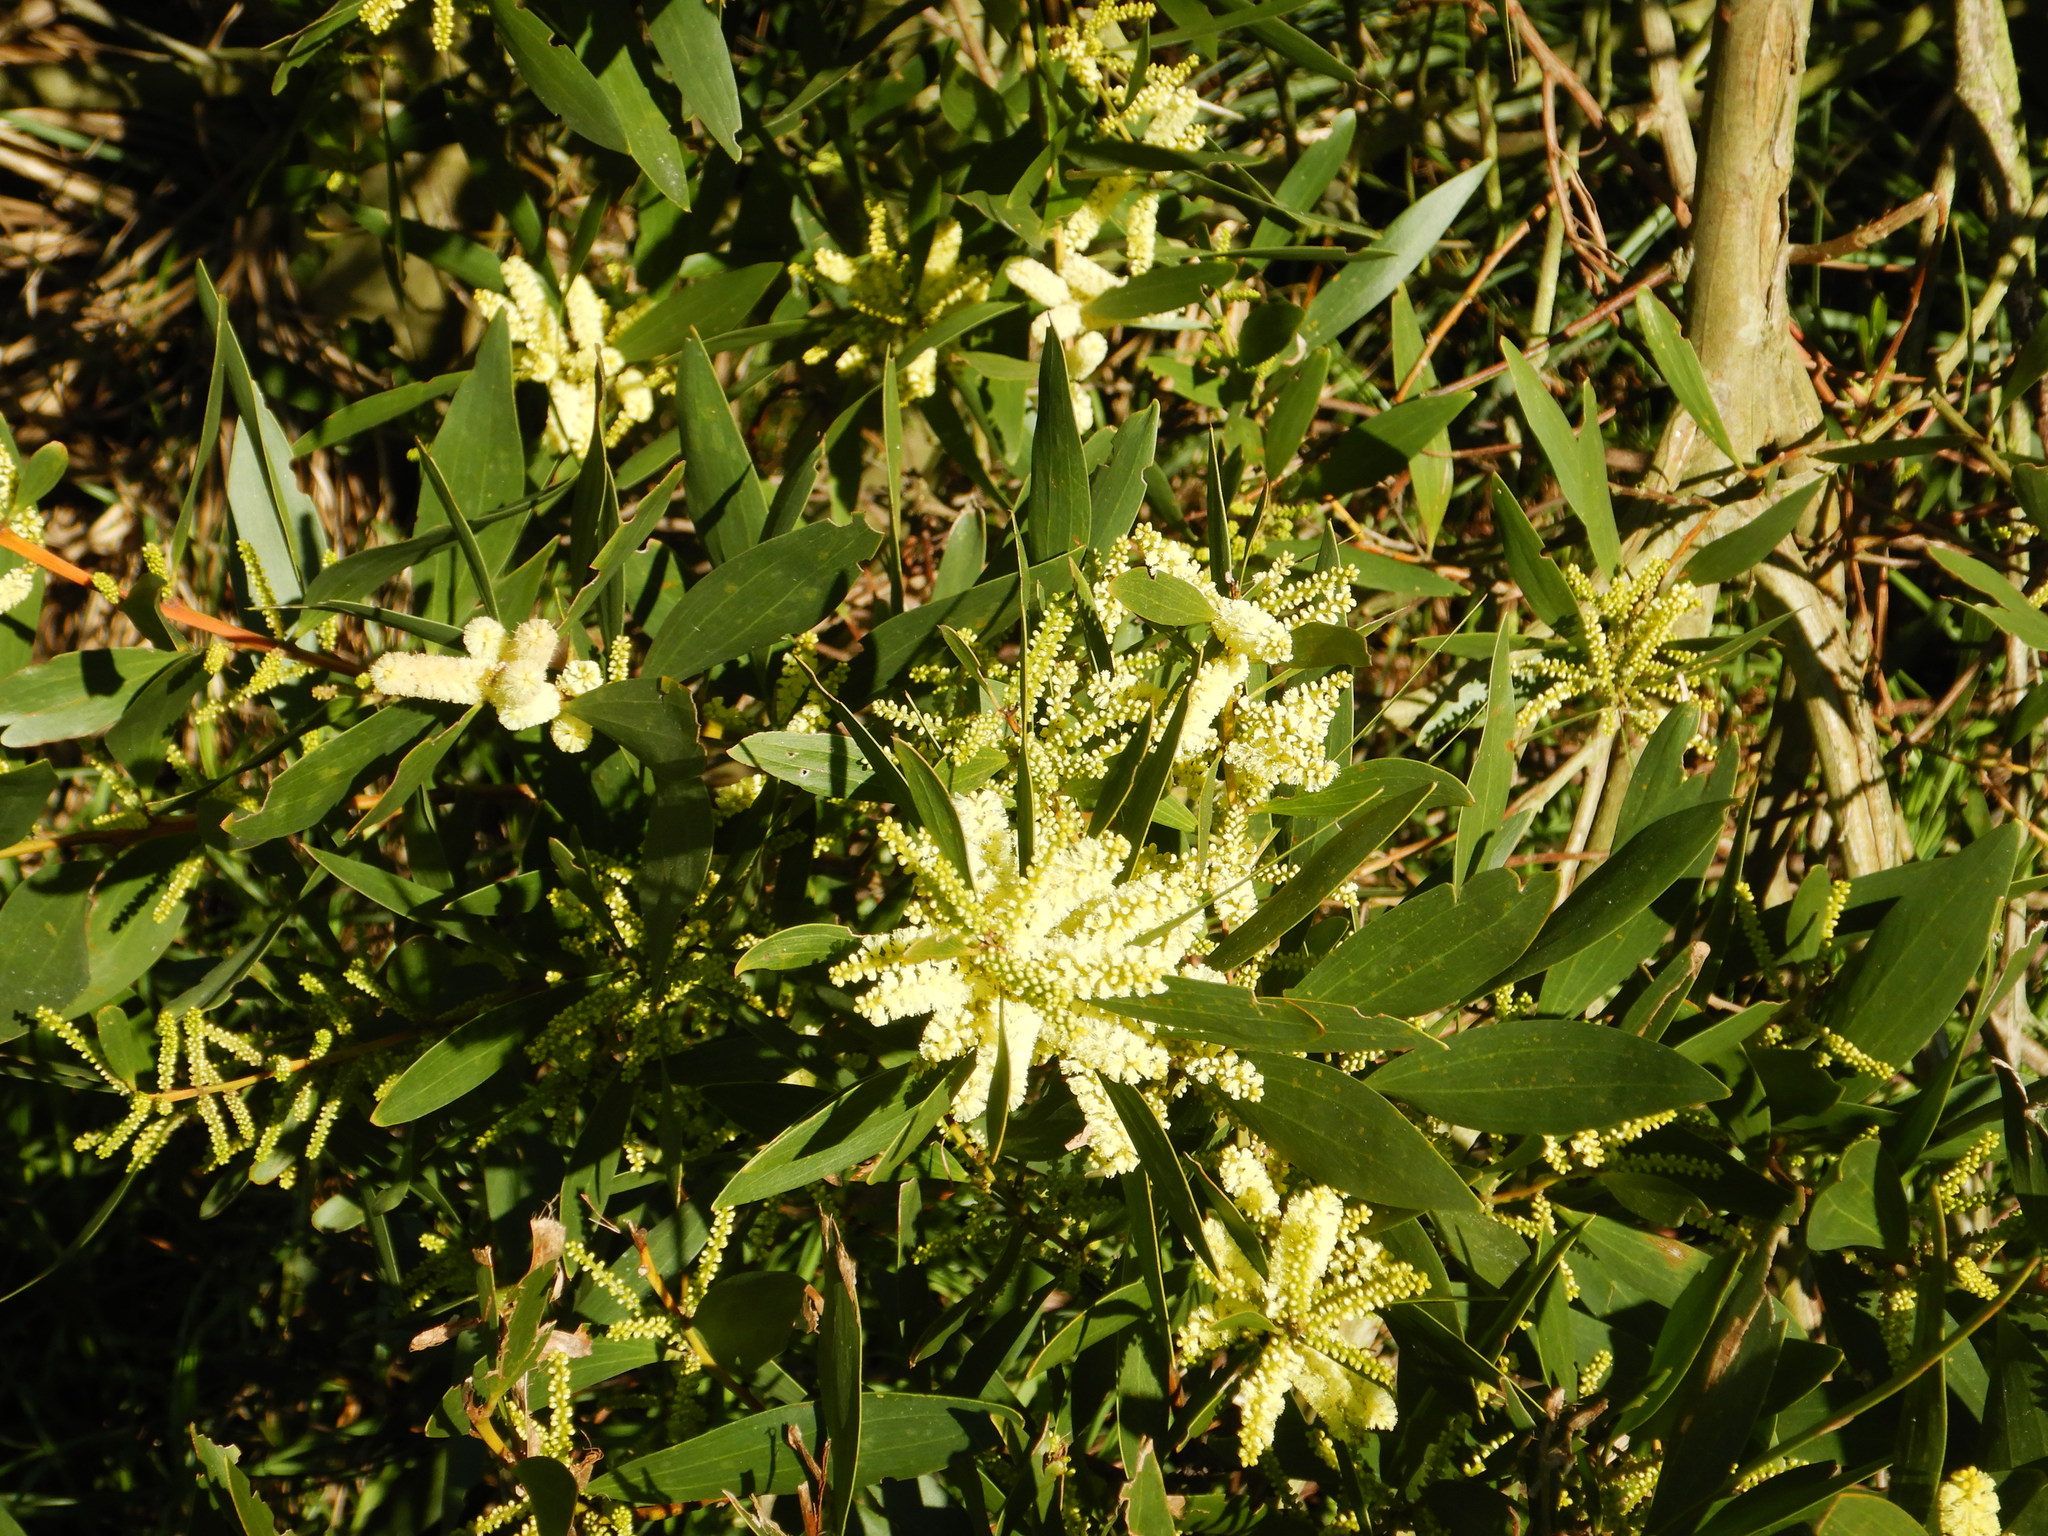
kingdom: Plantae
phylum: Tracheophyta
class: Magnoliopsida
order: Fabales
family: Fabaceae
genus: Acacia
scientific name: Acacia longifolia
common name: Sydney golden wattle
